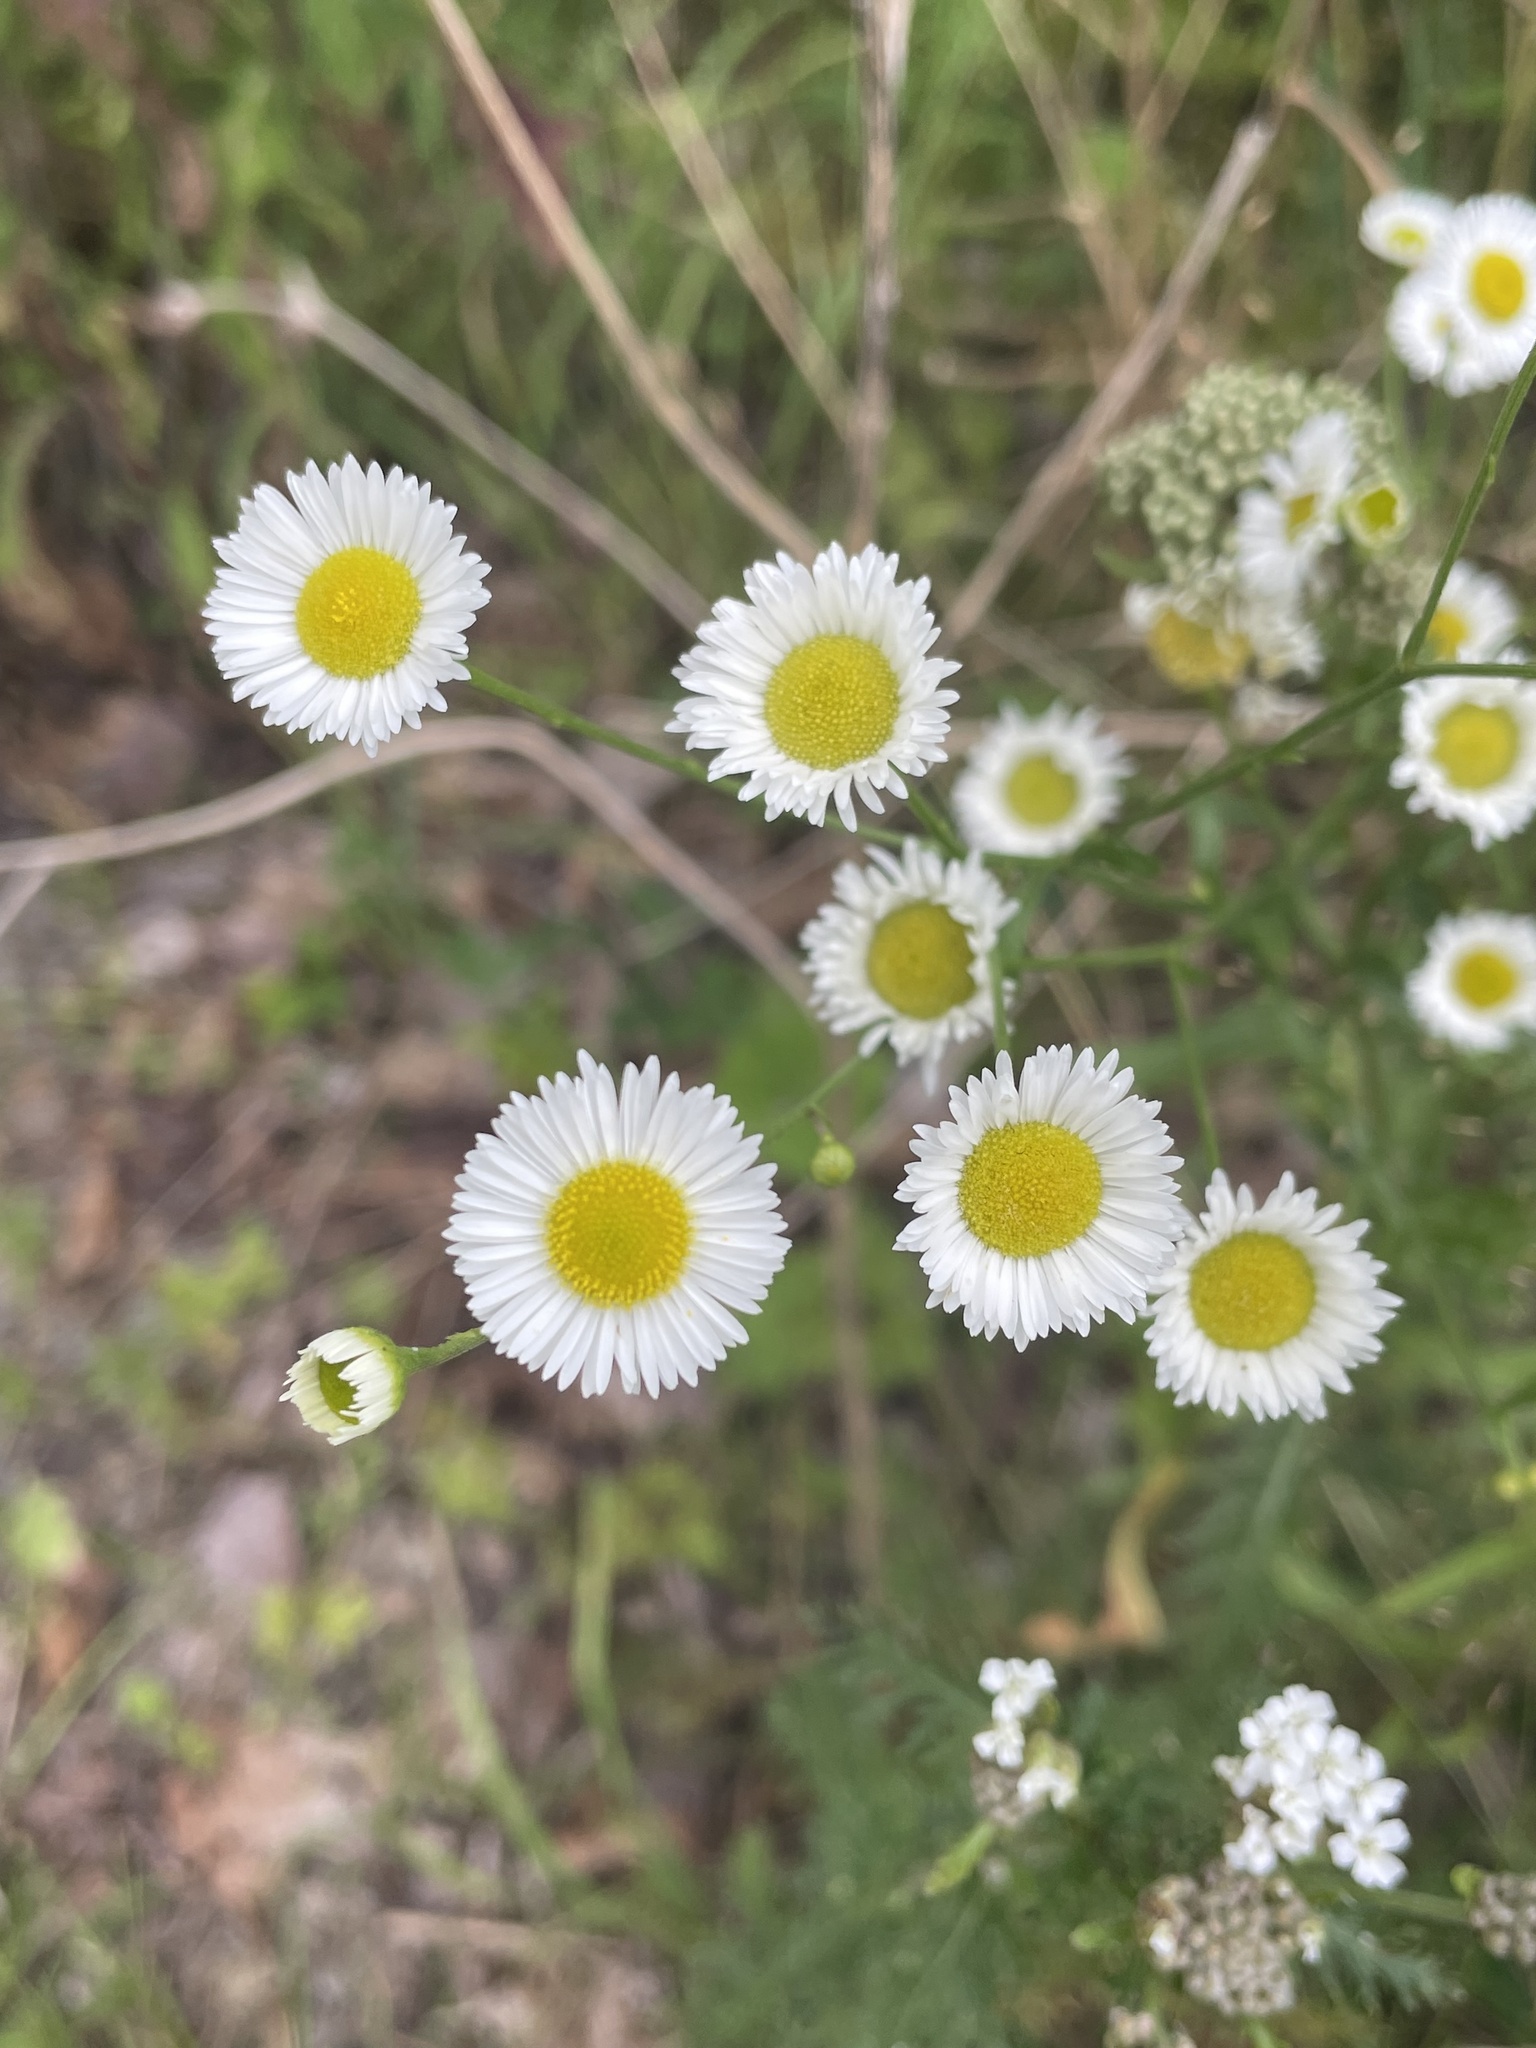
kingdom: Plantae
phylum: Tracheophyta
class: Magnoliopsida
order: Asterales
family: Asteraceae
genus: Erigeron
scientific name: Erigeron strigosus
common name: Common eastern fleabane
